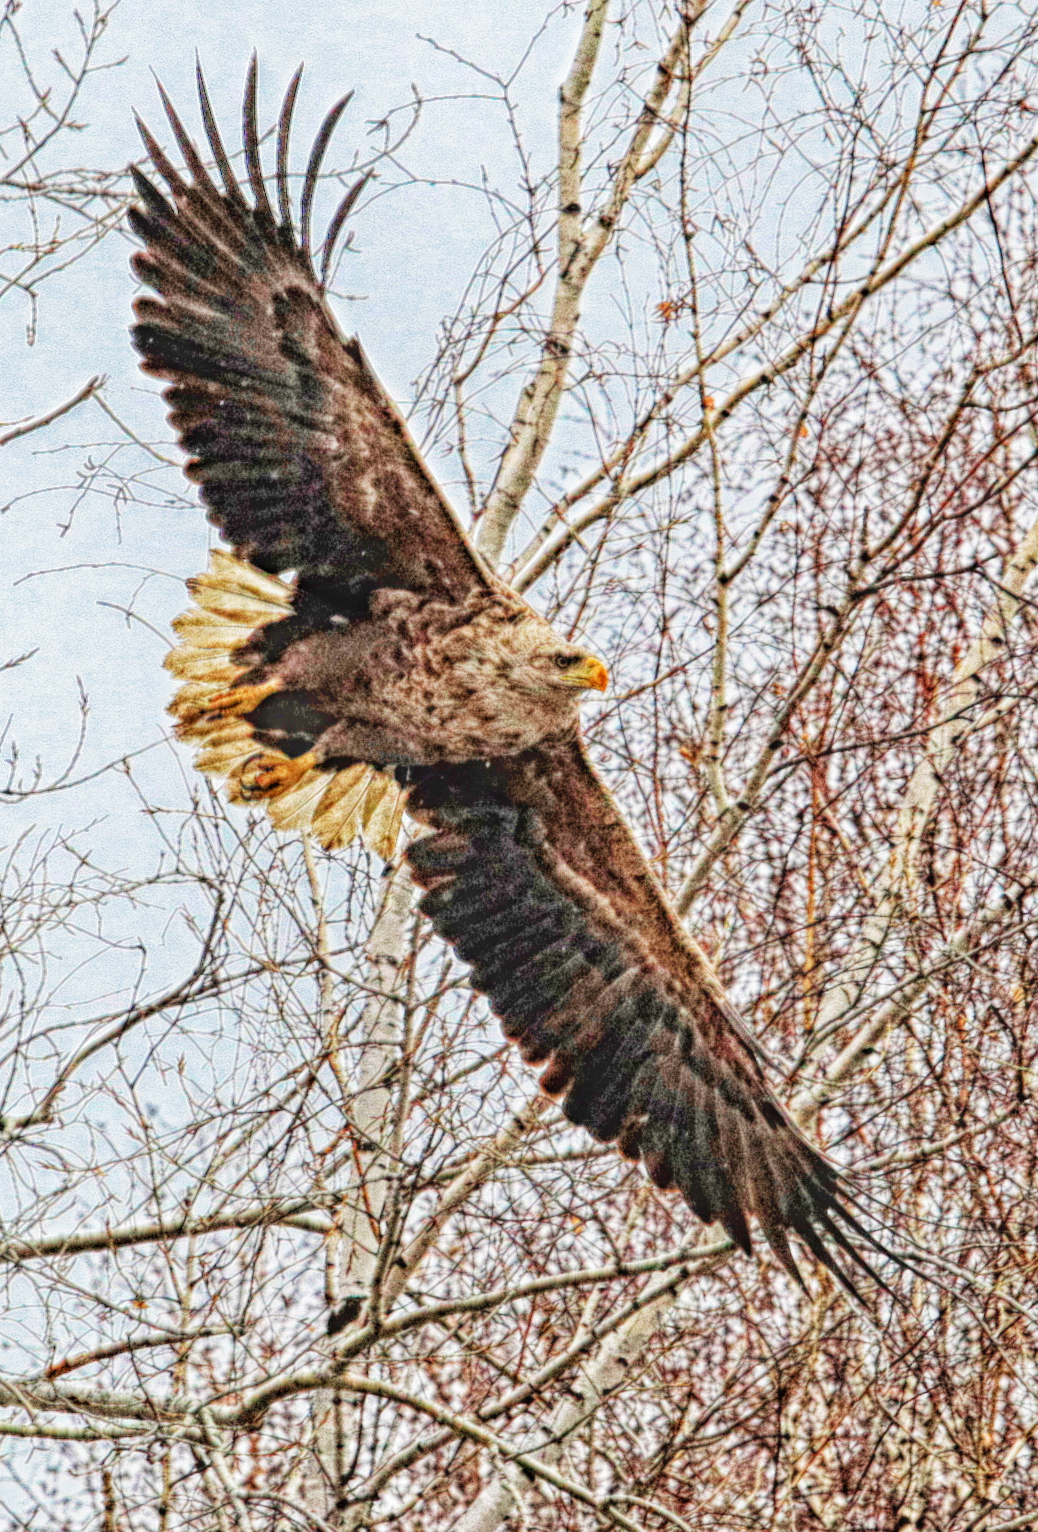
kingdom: Animalia
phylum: Chordata
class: Aves
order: Accipitriformes
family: Accipitridae
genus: Haliaeetus
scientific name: Haliaeetus albicilla
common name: White-tailed eagle
